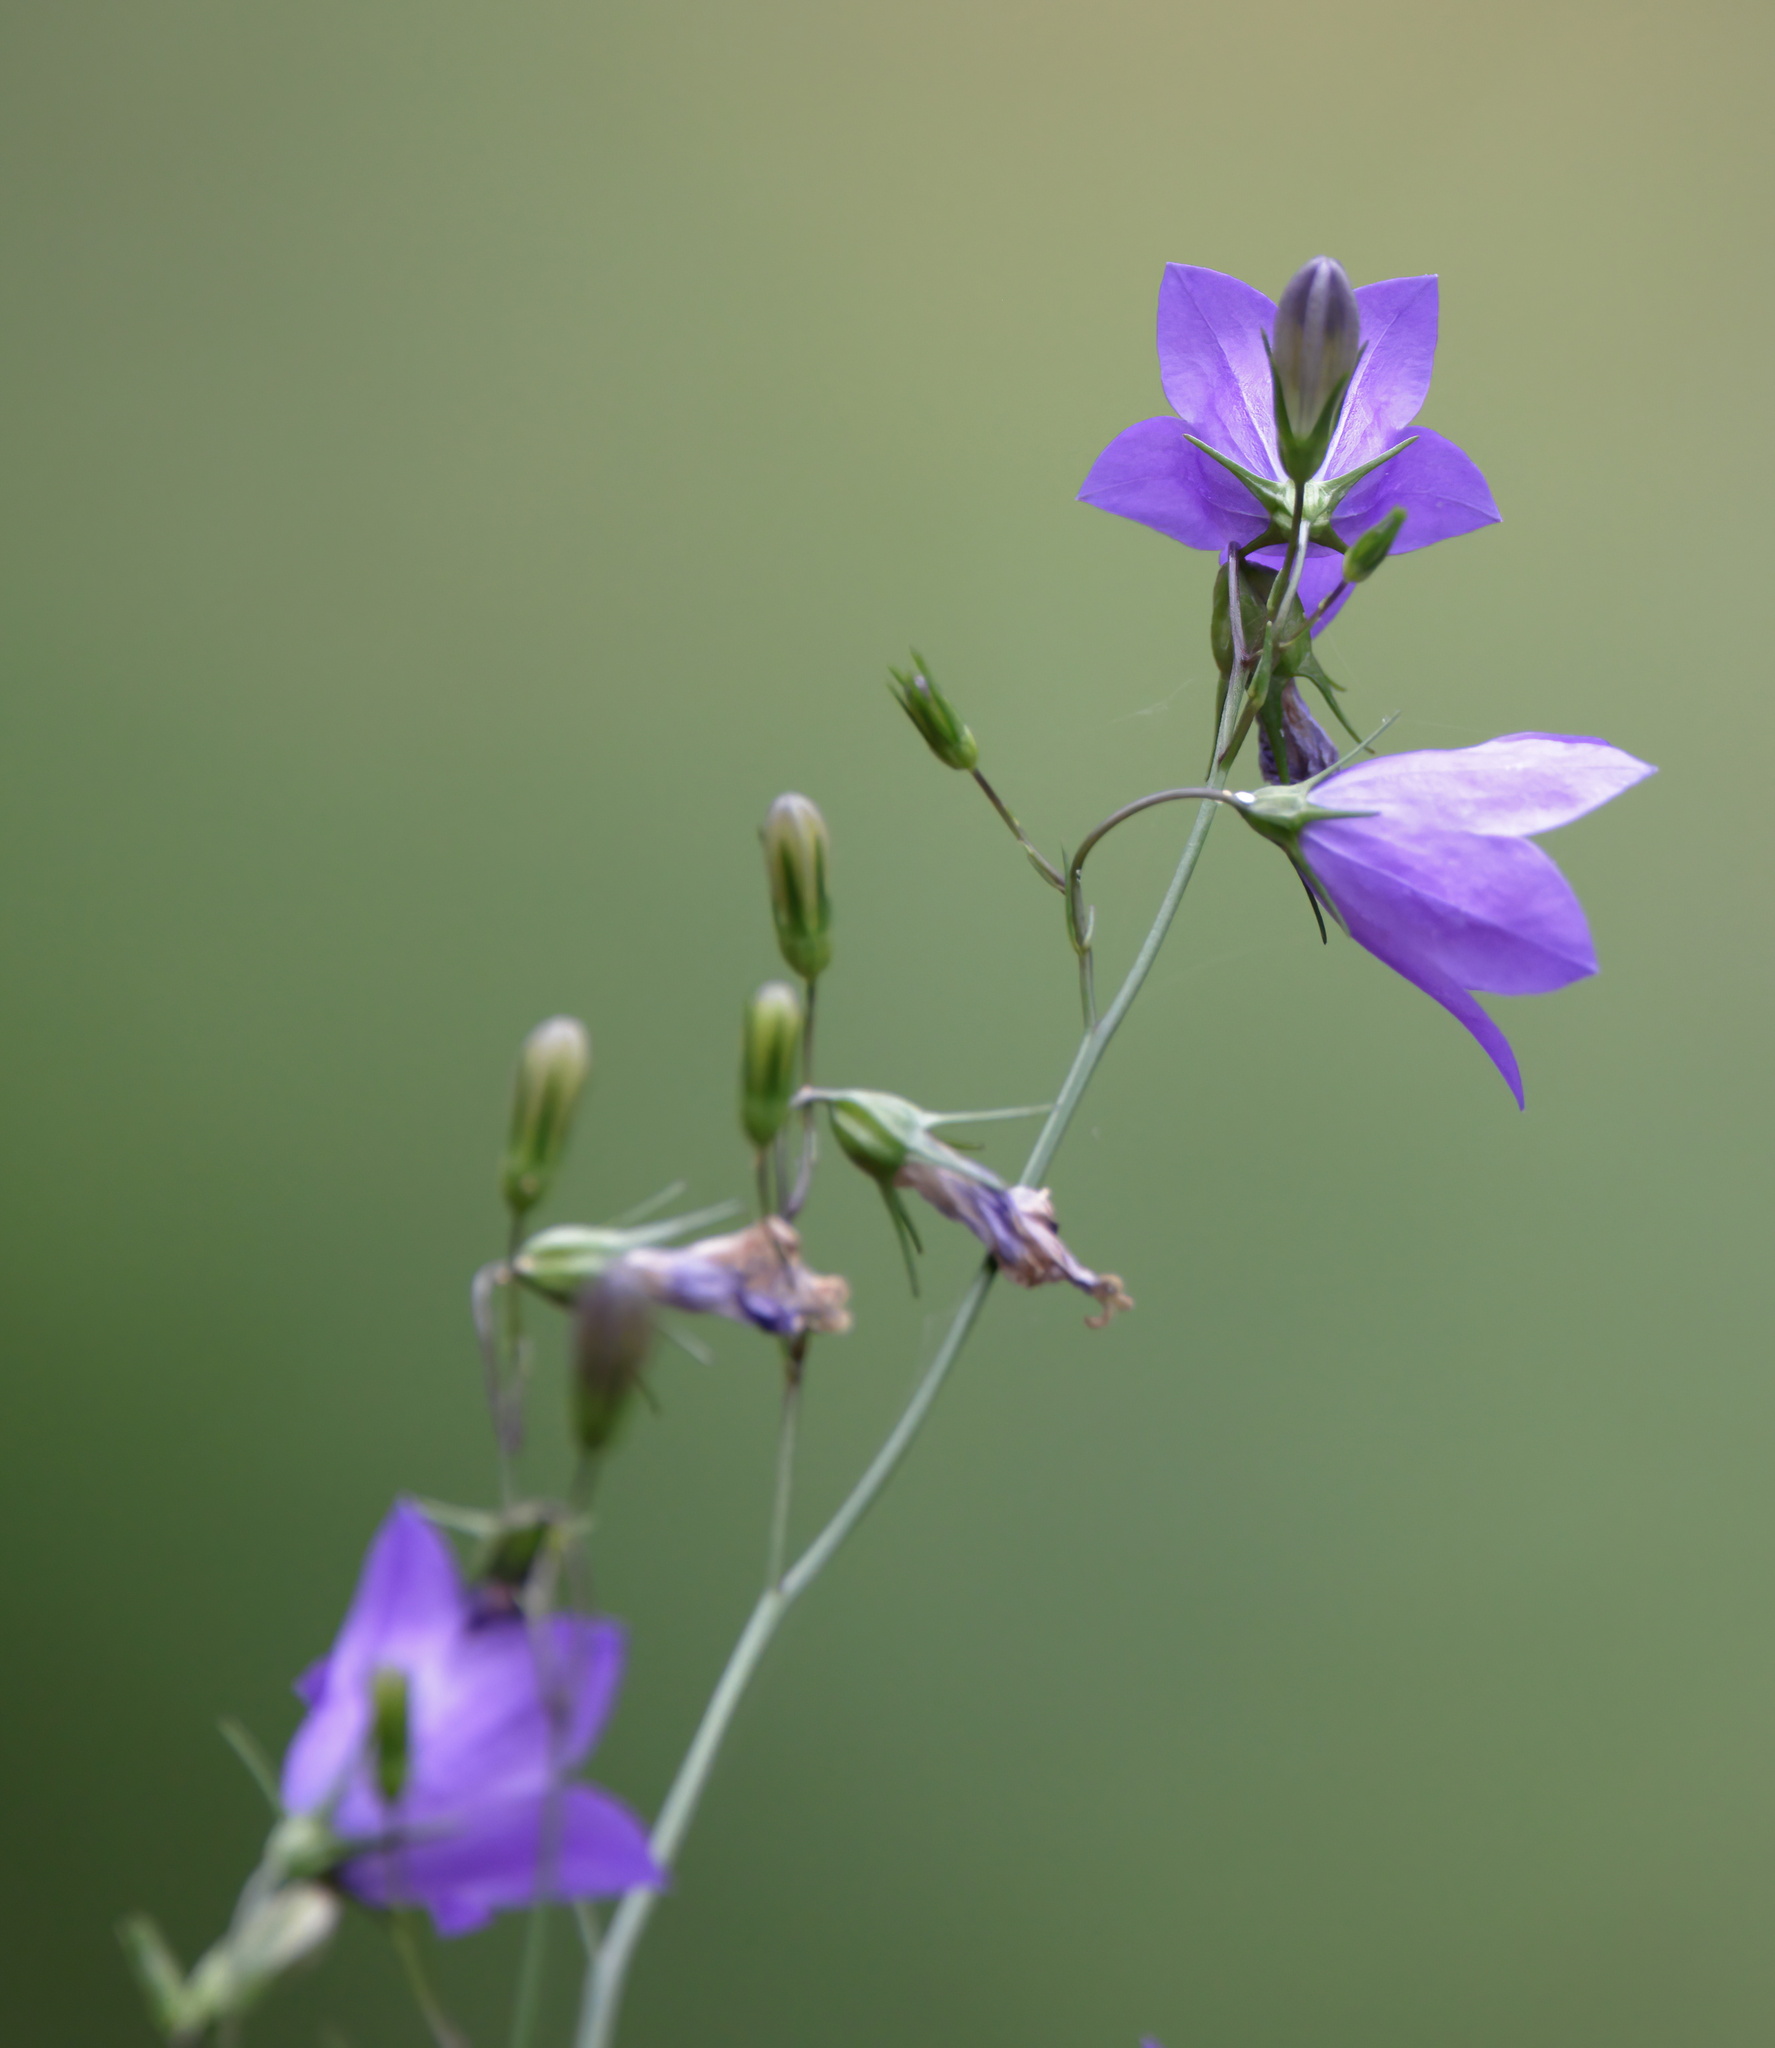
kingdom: Plantae
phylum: Tracheophyta
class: Magnoliopsida
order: Asterales
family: Campanulaceae
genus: Campanula
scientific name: Campanula intercedens
